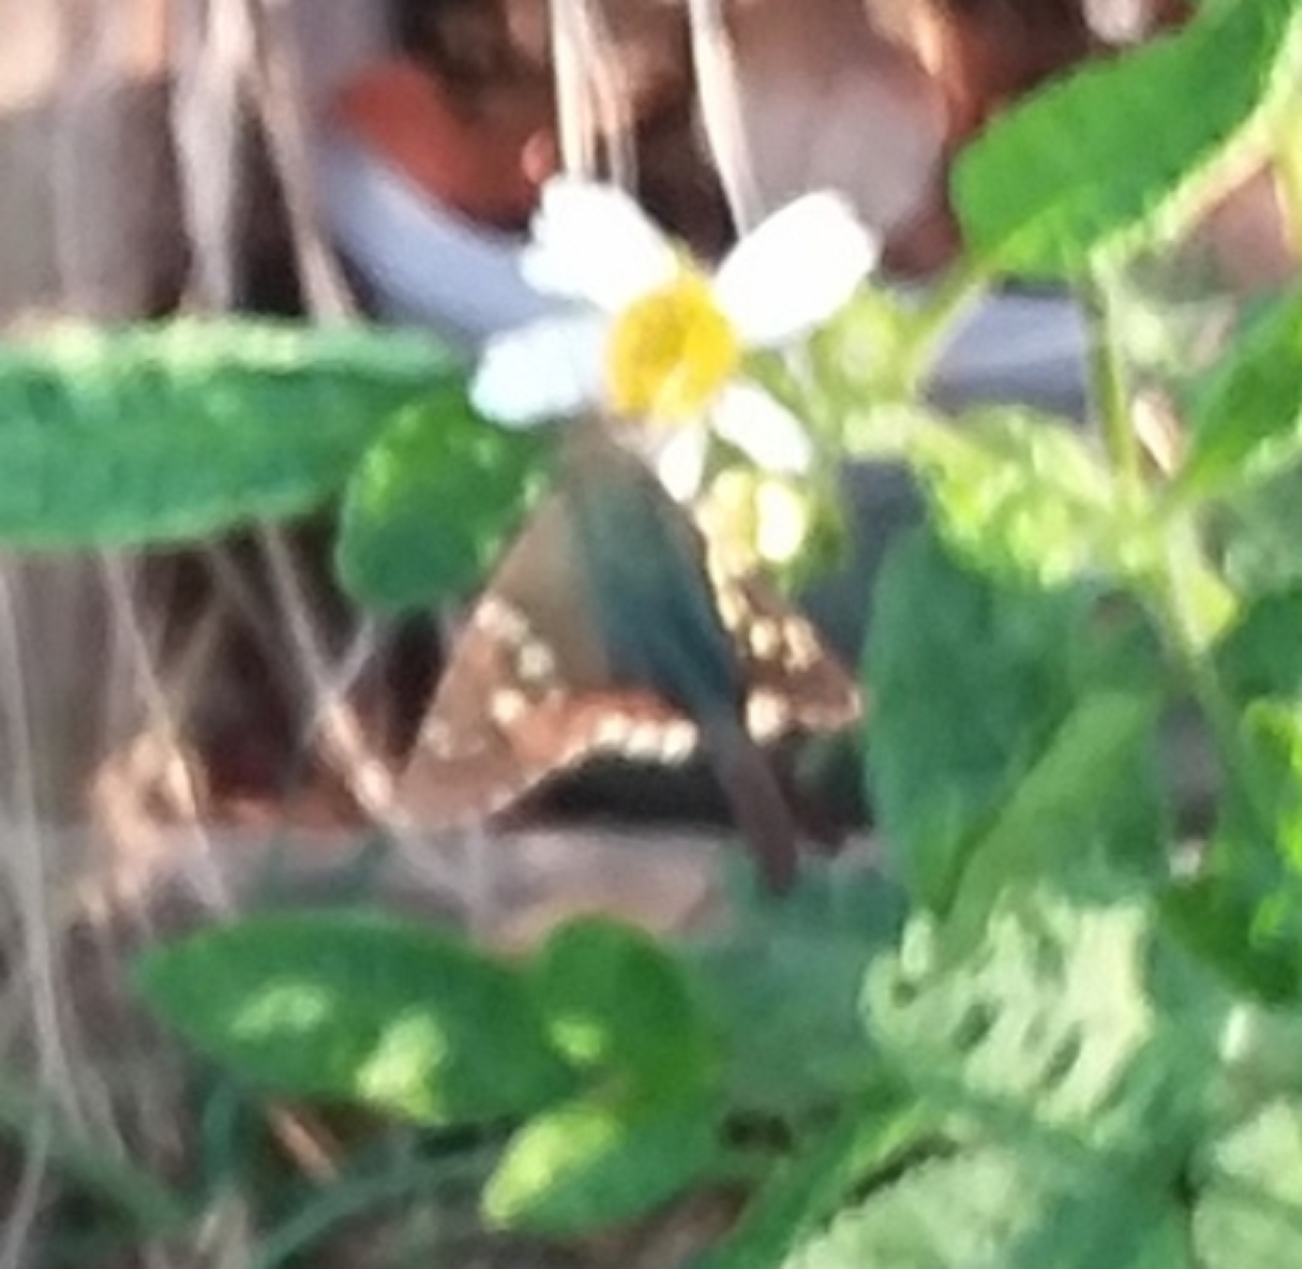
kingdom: Animalia
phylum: Arthropoda
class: Insecta
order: Lepidoptera
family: Hesperiidae
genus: Urbanus
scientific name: Urbanus proteus
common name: Long-tailed skipper
